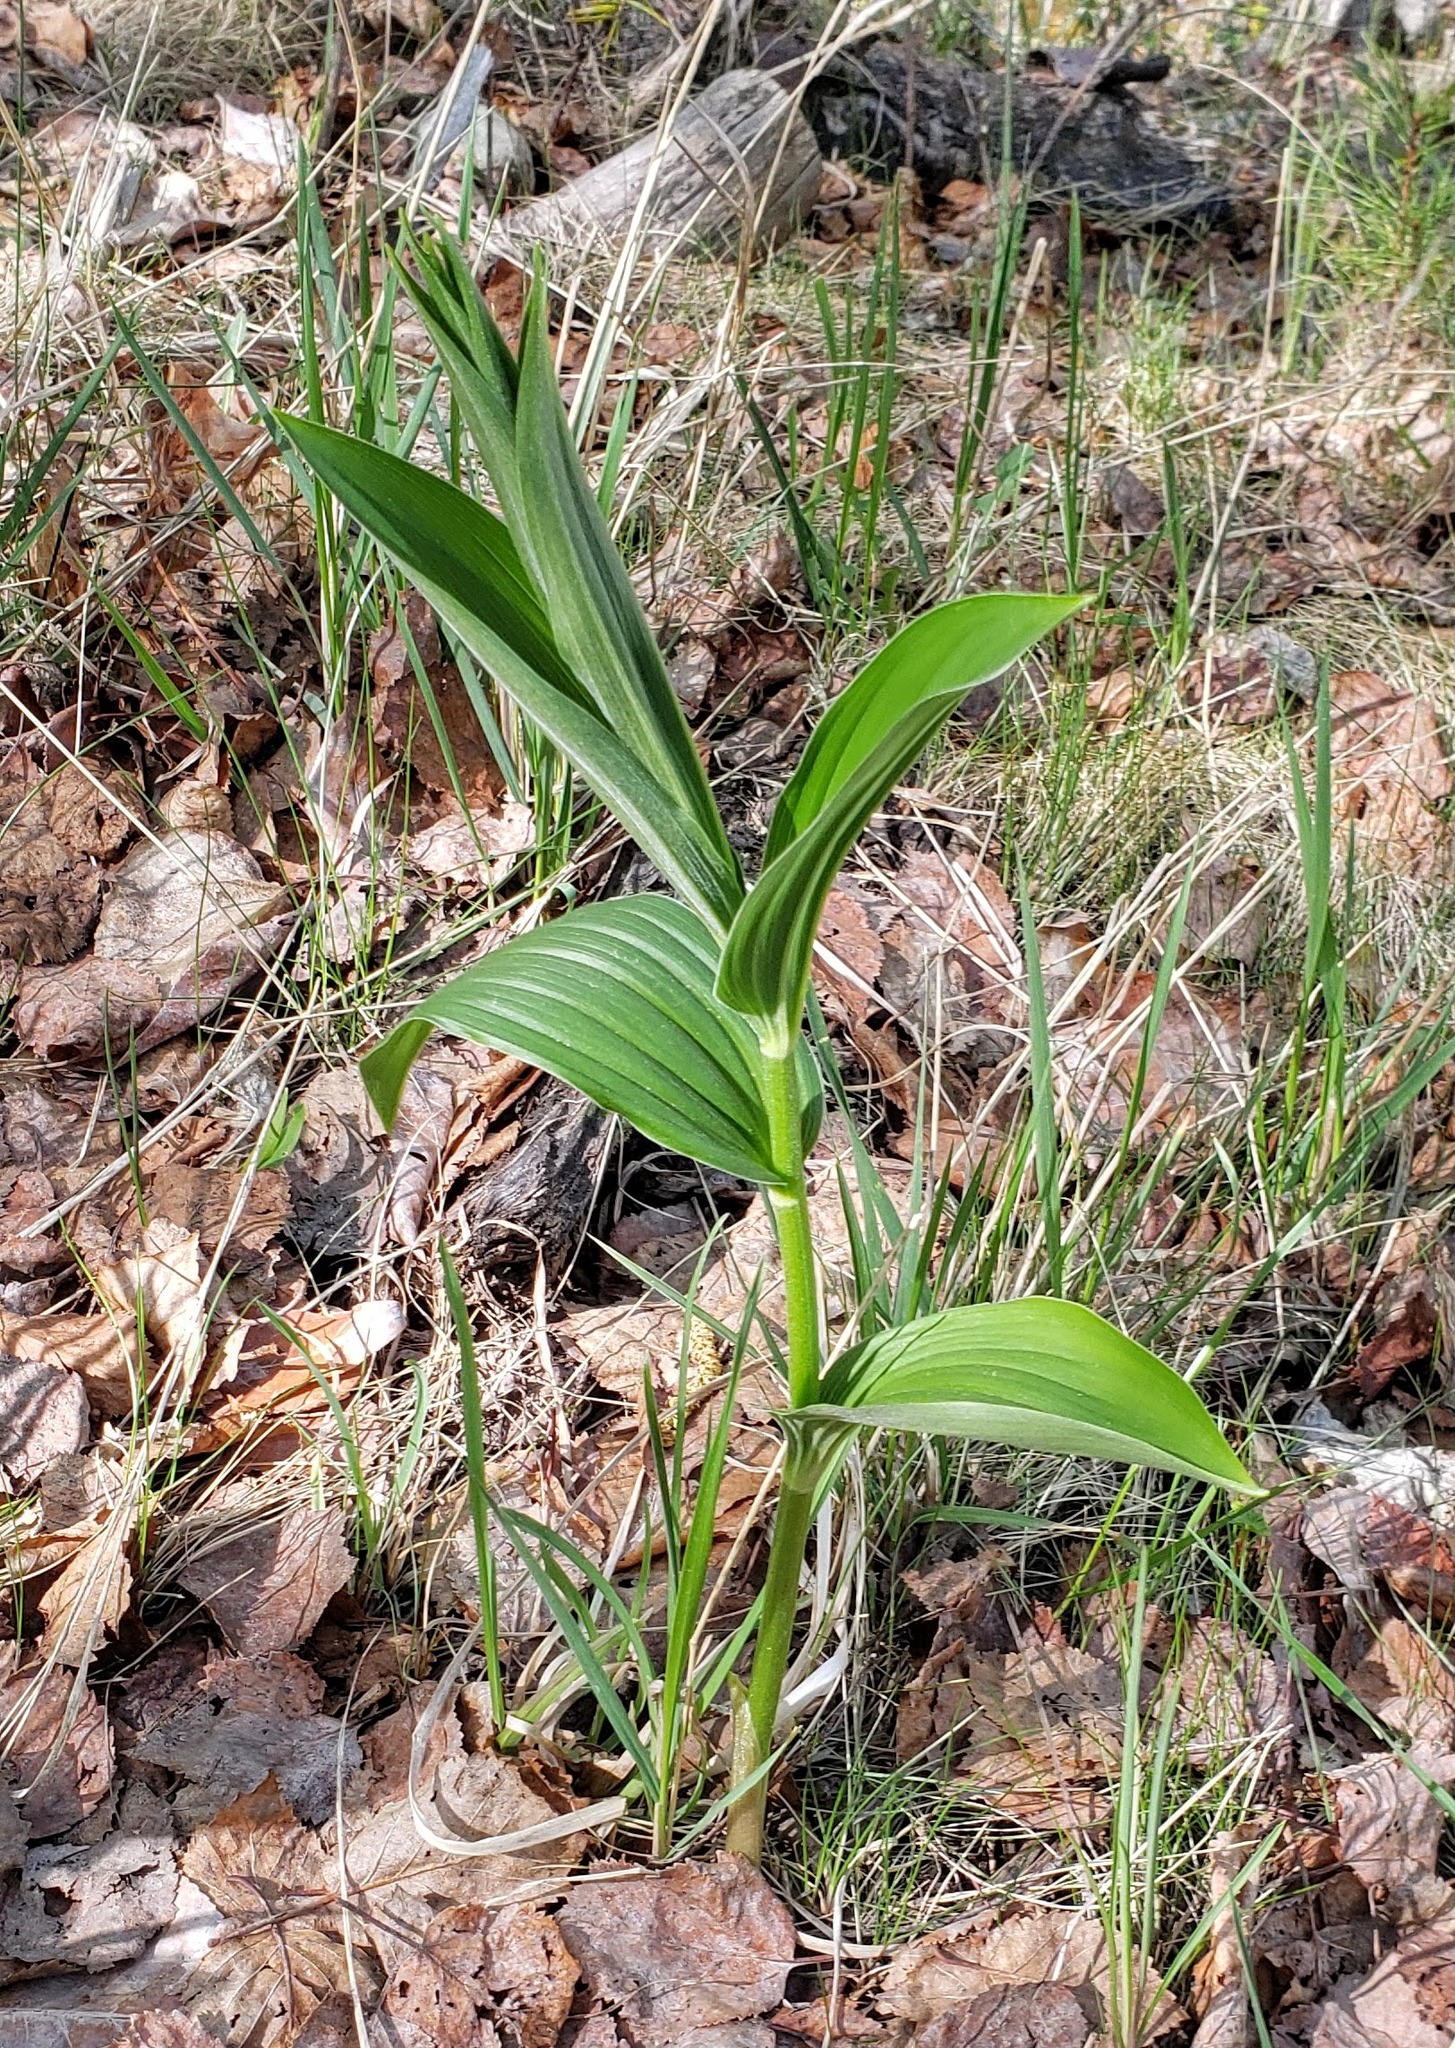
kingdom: Plantae
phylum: Tracheophyta
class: Liliopsida
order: Asparagales
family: Asparagaceae
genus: Maianthemum
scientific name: Maianthemum racemosum
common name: False spikenard
